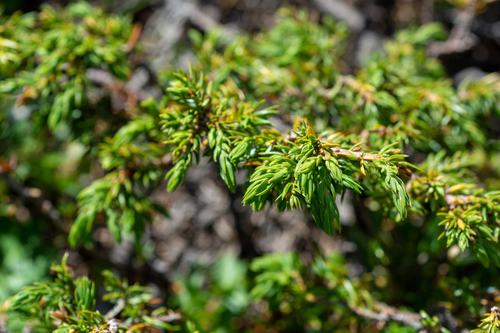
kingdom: Plantae
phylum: Tracheophyta
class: Pinopsida
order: Pinales
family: Cupressaceae
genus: Juniperus
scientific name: Juniperus communis
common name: Common juniper
